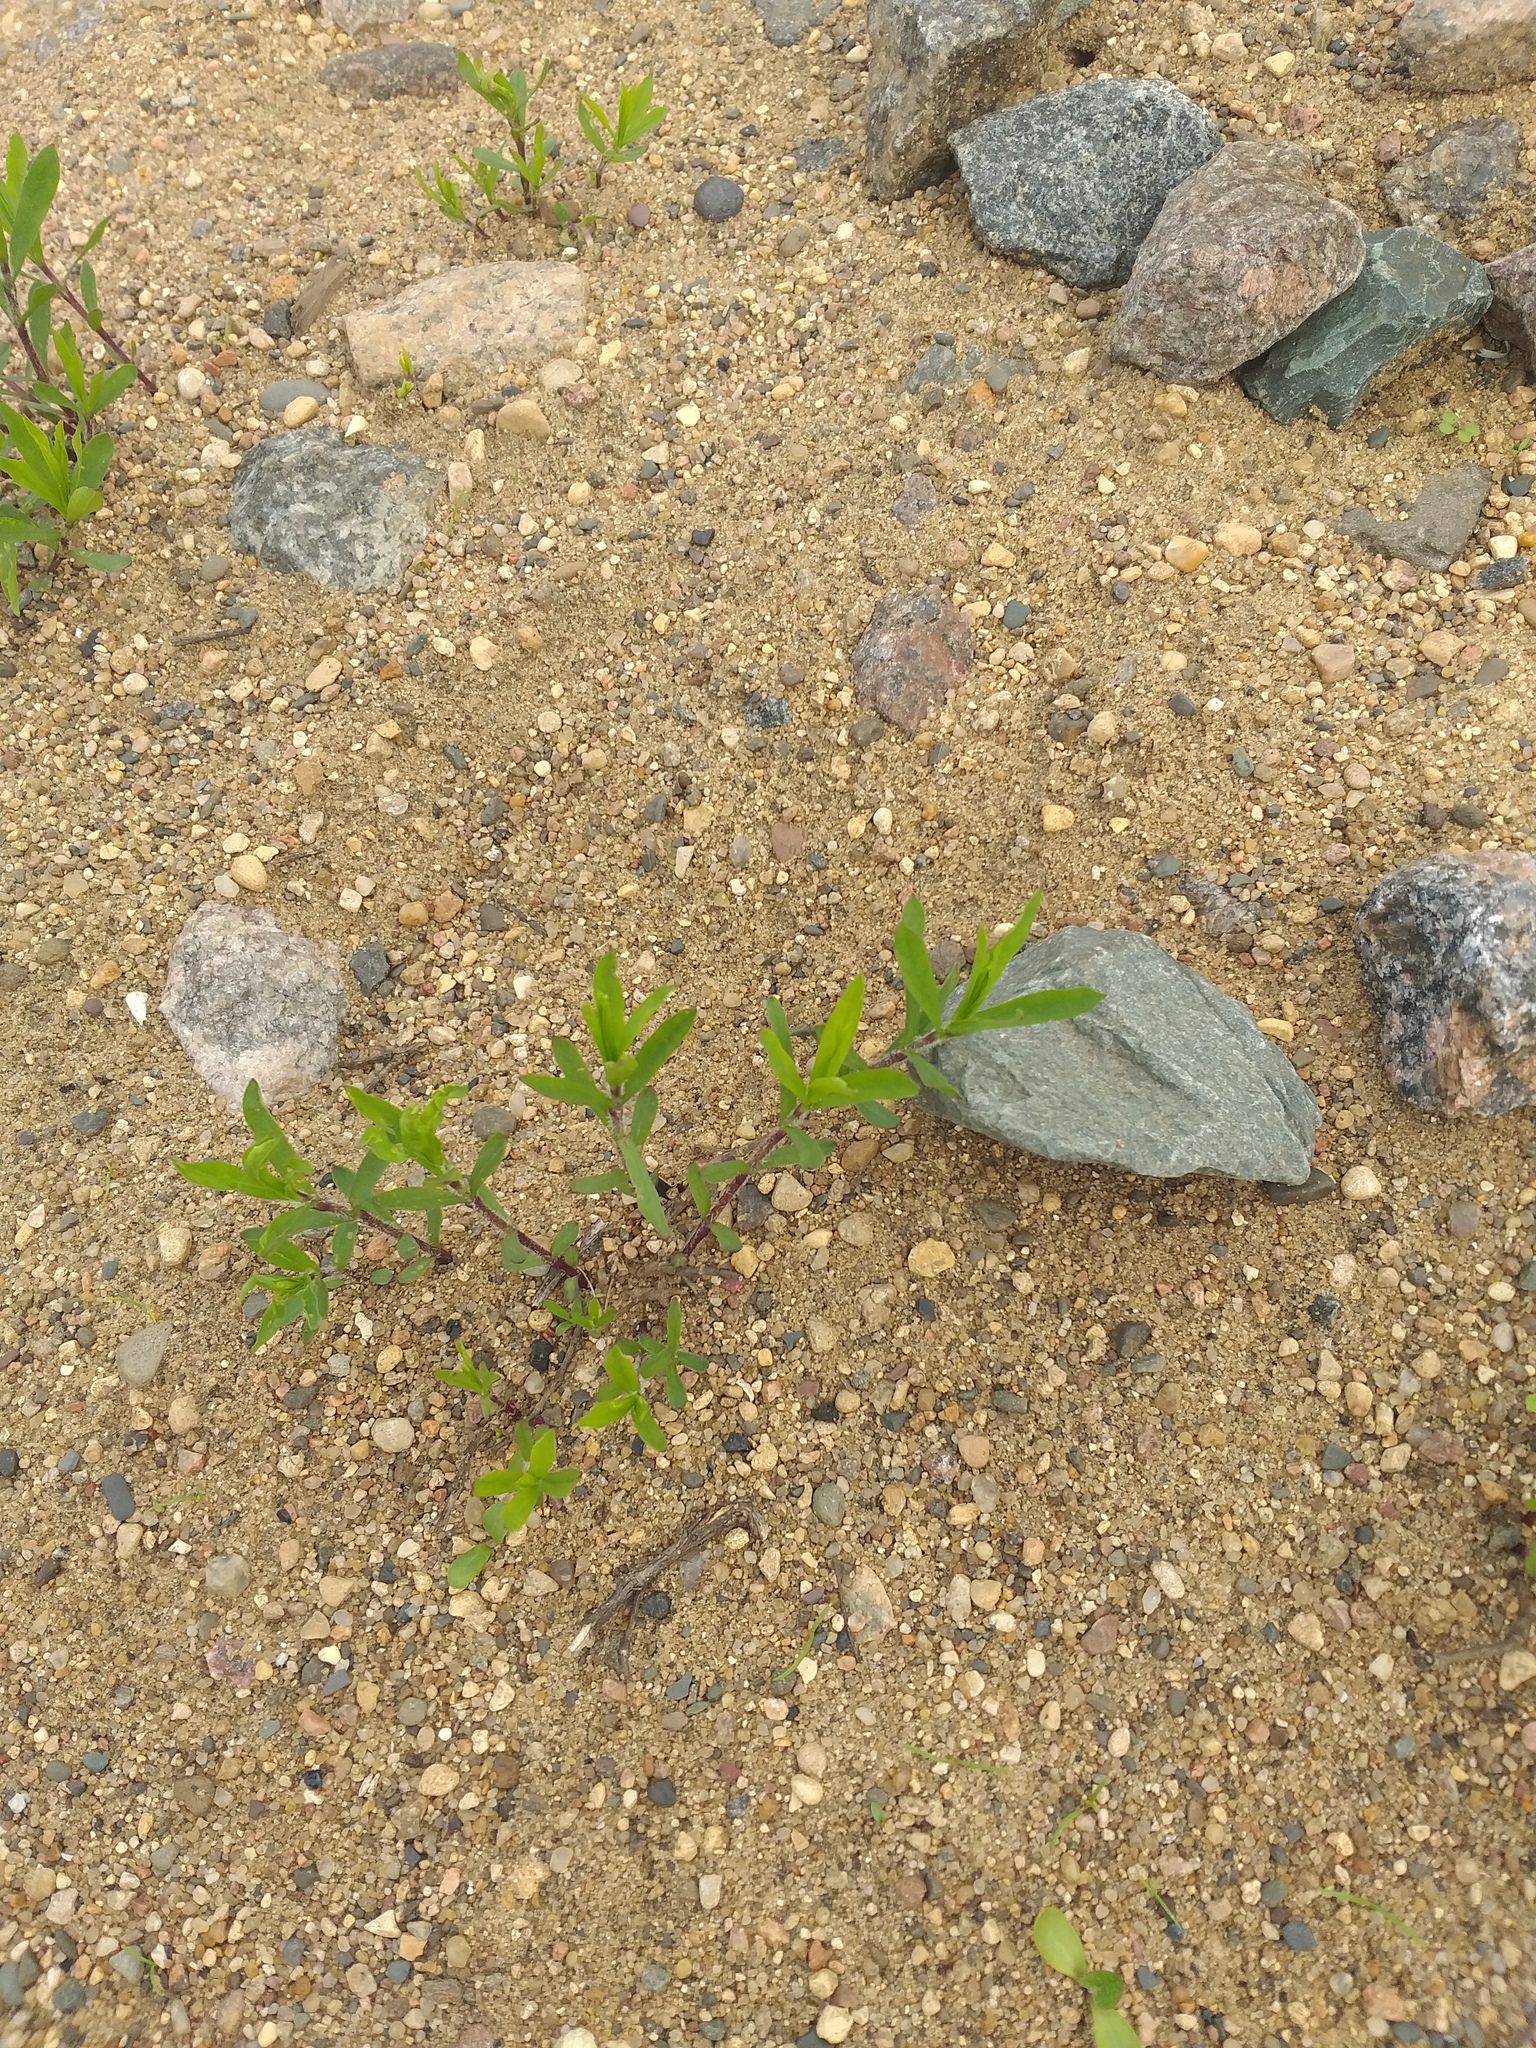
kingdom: Plantae
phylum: Tracheophyta
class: Magnoliopsida
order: Caryophyllales
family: Caryophyllaceae
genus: Silene
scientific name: Silene tatarica
